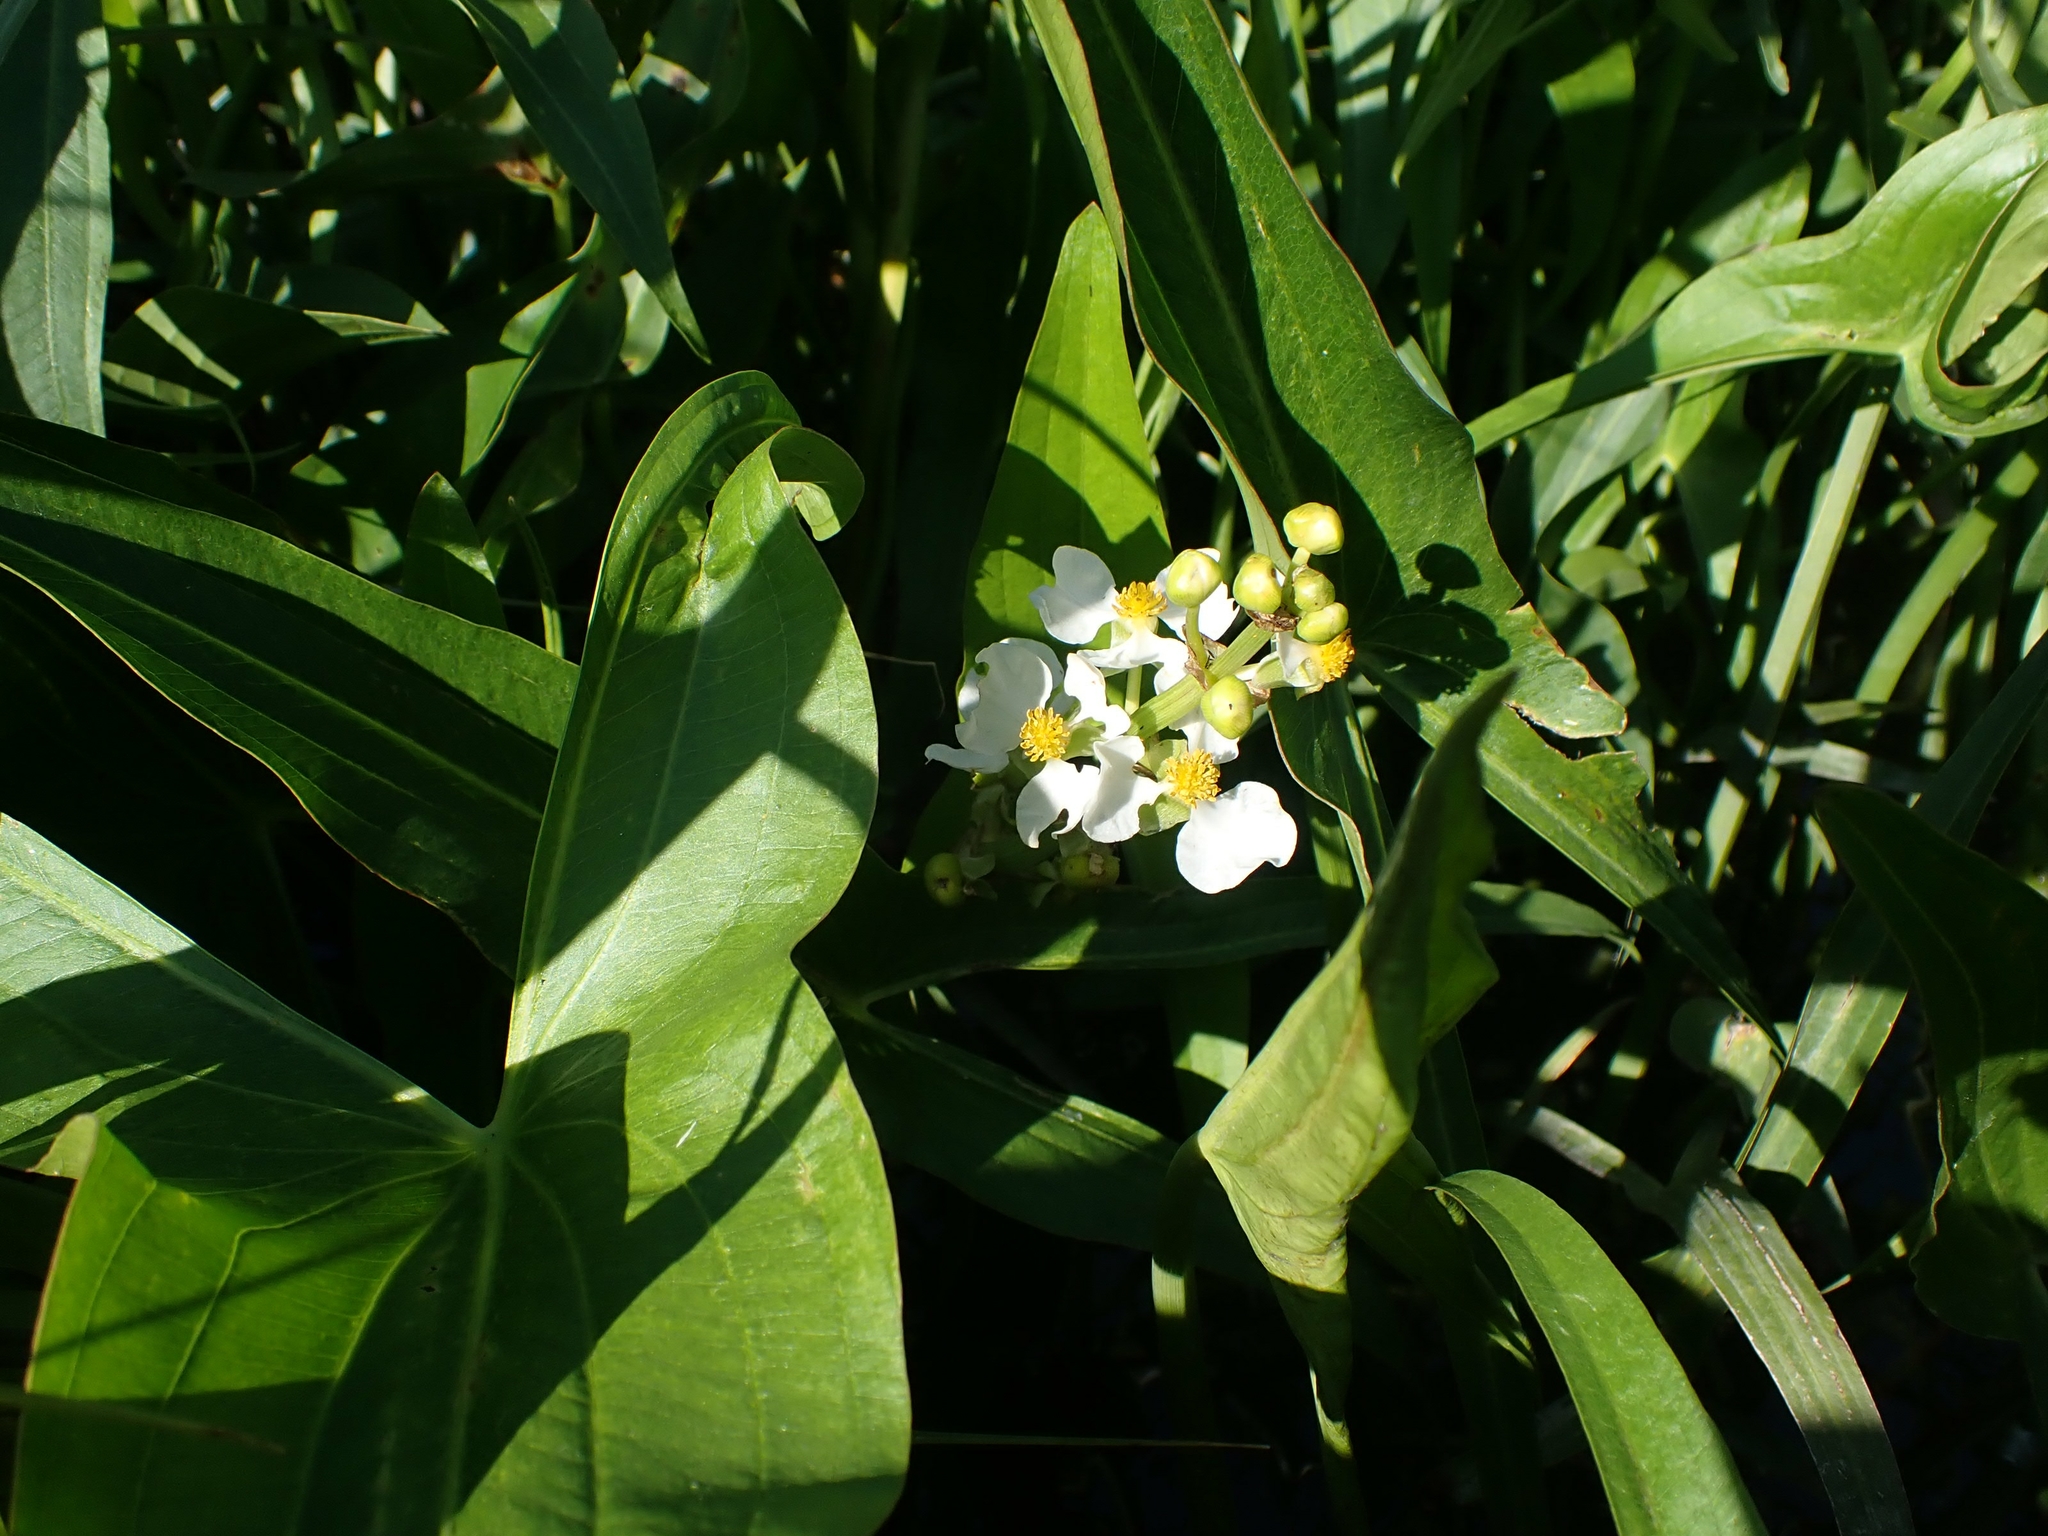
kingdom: Plantae
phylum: Tracheophyta
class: Liliopsida
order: Alismatales
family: Alismataceae
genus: Sagittaria
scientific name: Sagittaria latifolia
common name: Duck-potato
